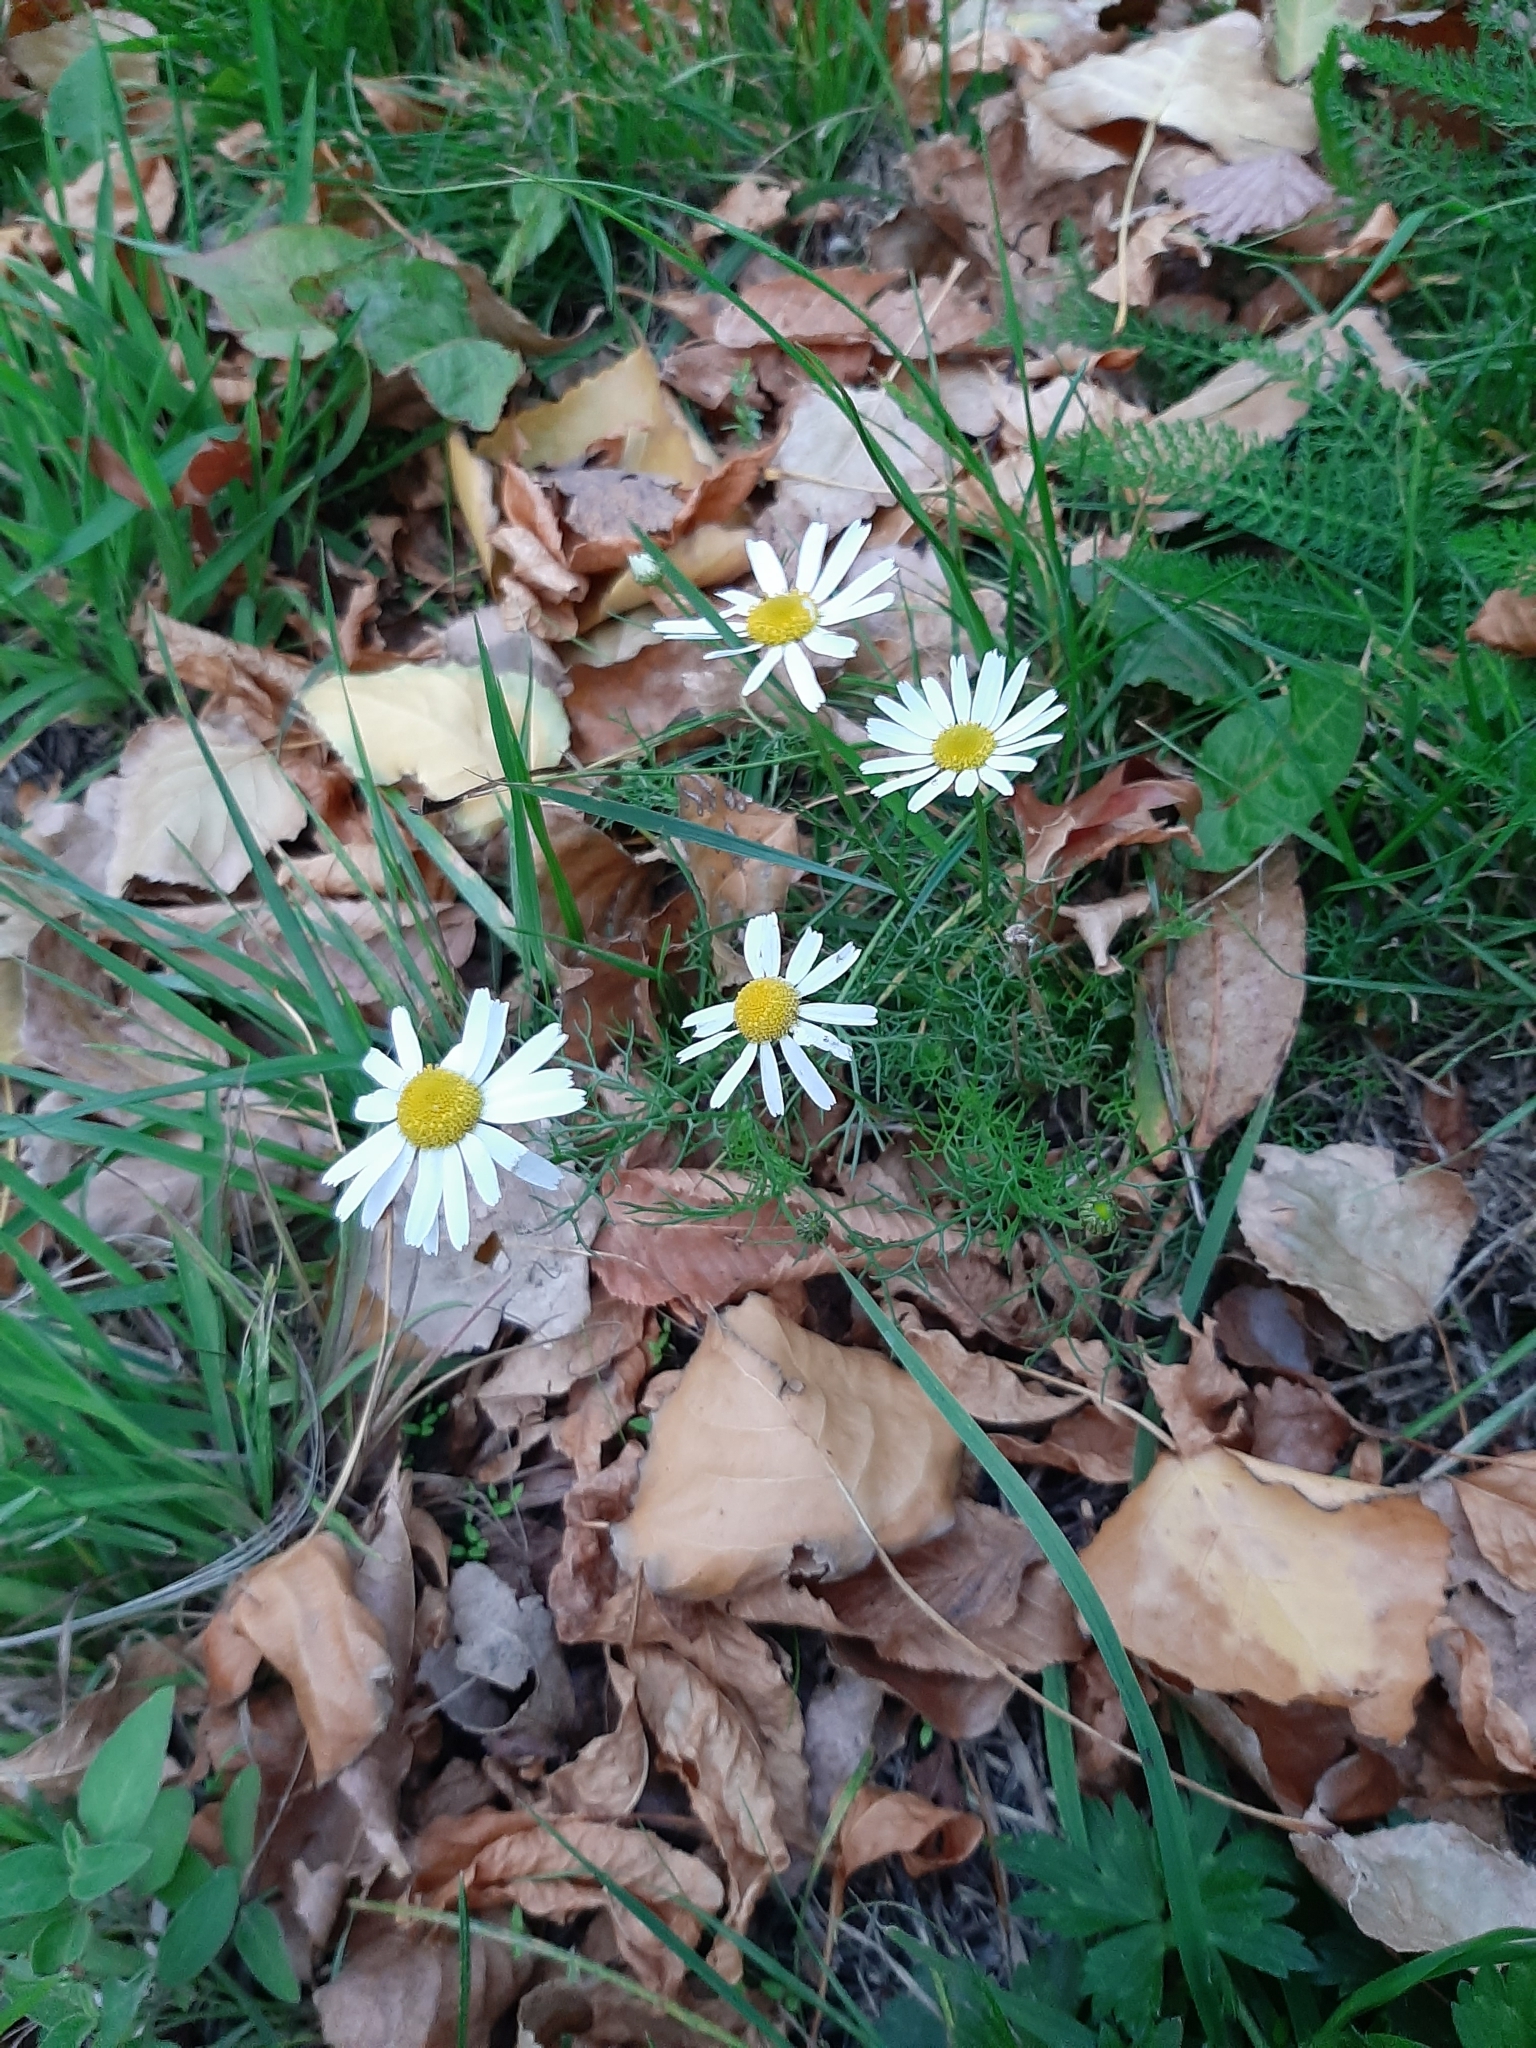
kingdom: Plantae
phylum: Tracheophyta
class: Magnoliopsida
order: Asterales
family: Asteraceae
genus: Tripleurospermum
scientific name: Tripleurospermum inodorum
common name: Scentless mayweed
